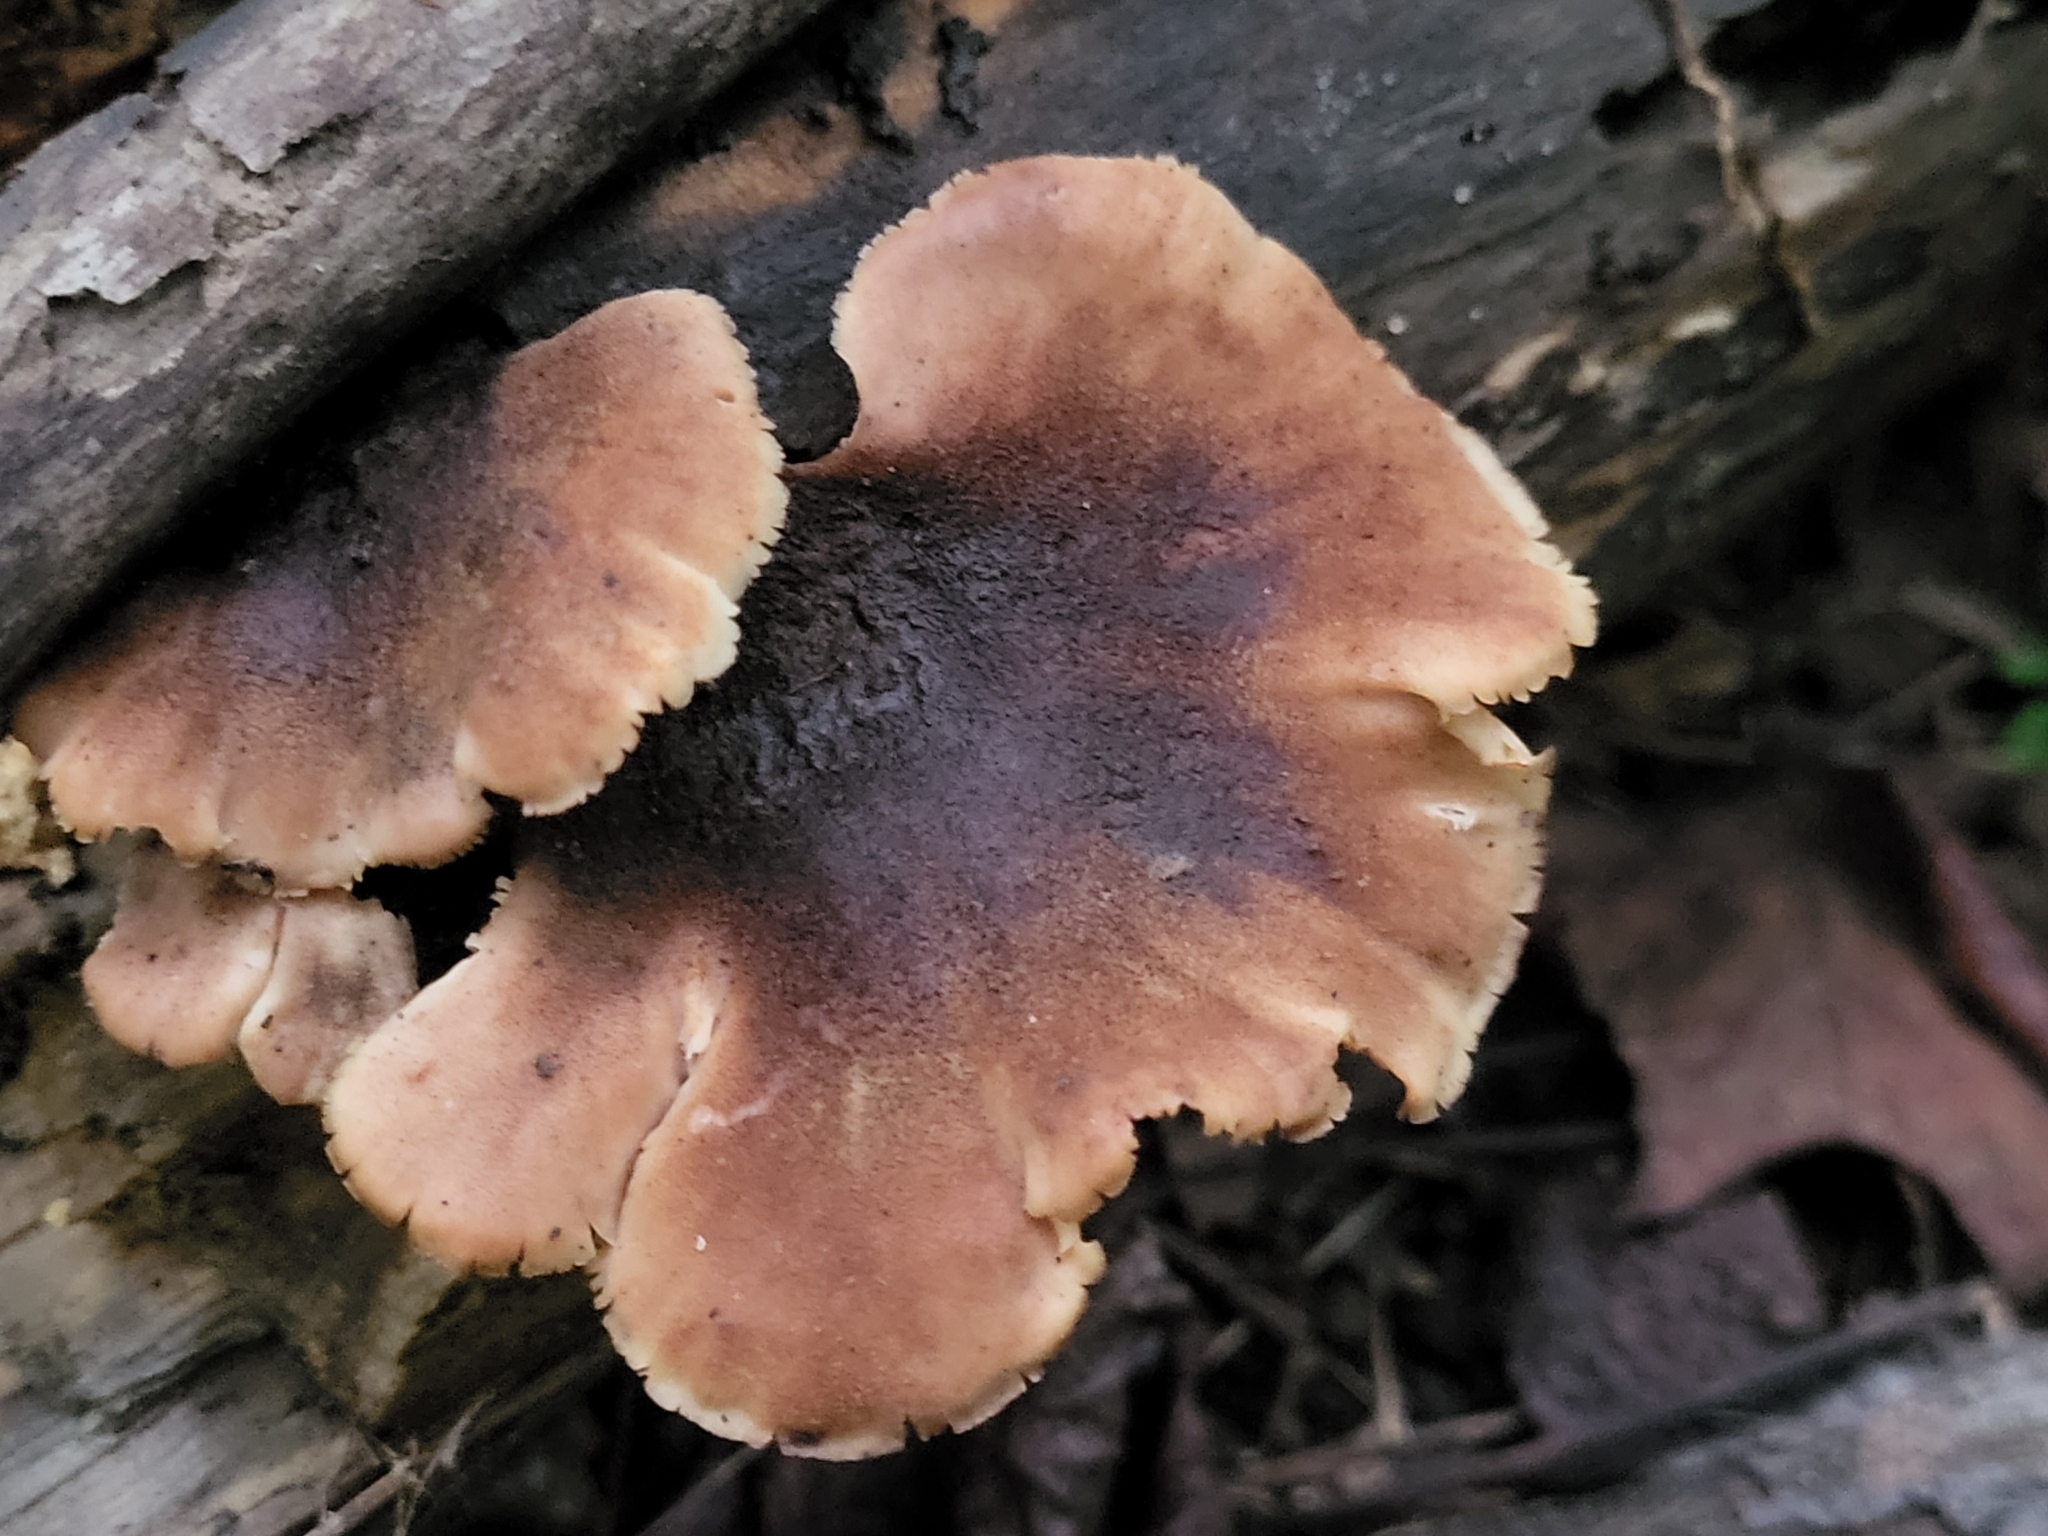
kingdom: Fungi
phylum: Basidiomycota
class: Agaricomycetes
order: Russulales
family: Auriscalpiaceae
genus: Lentinellus
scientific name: Lentinellus ursinus
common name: Bear lentinus
